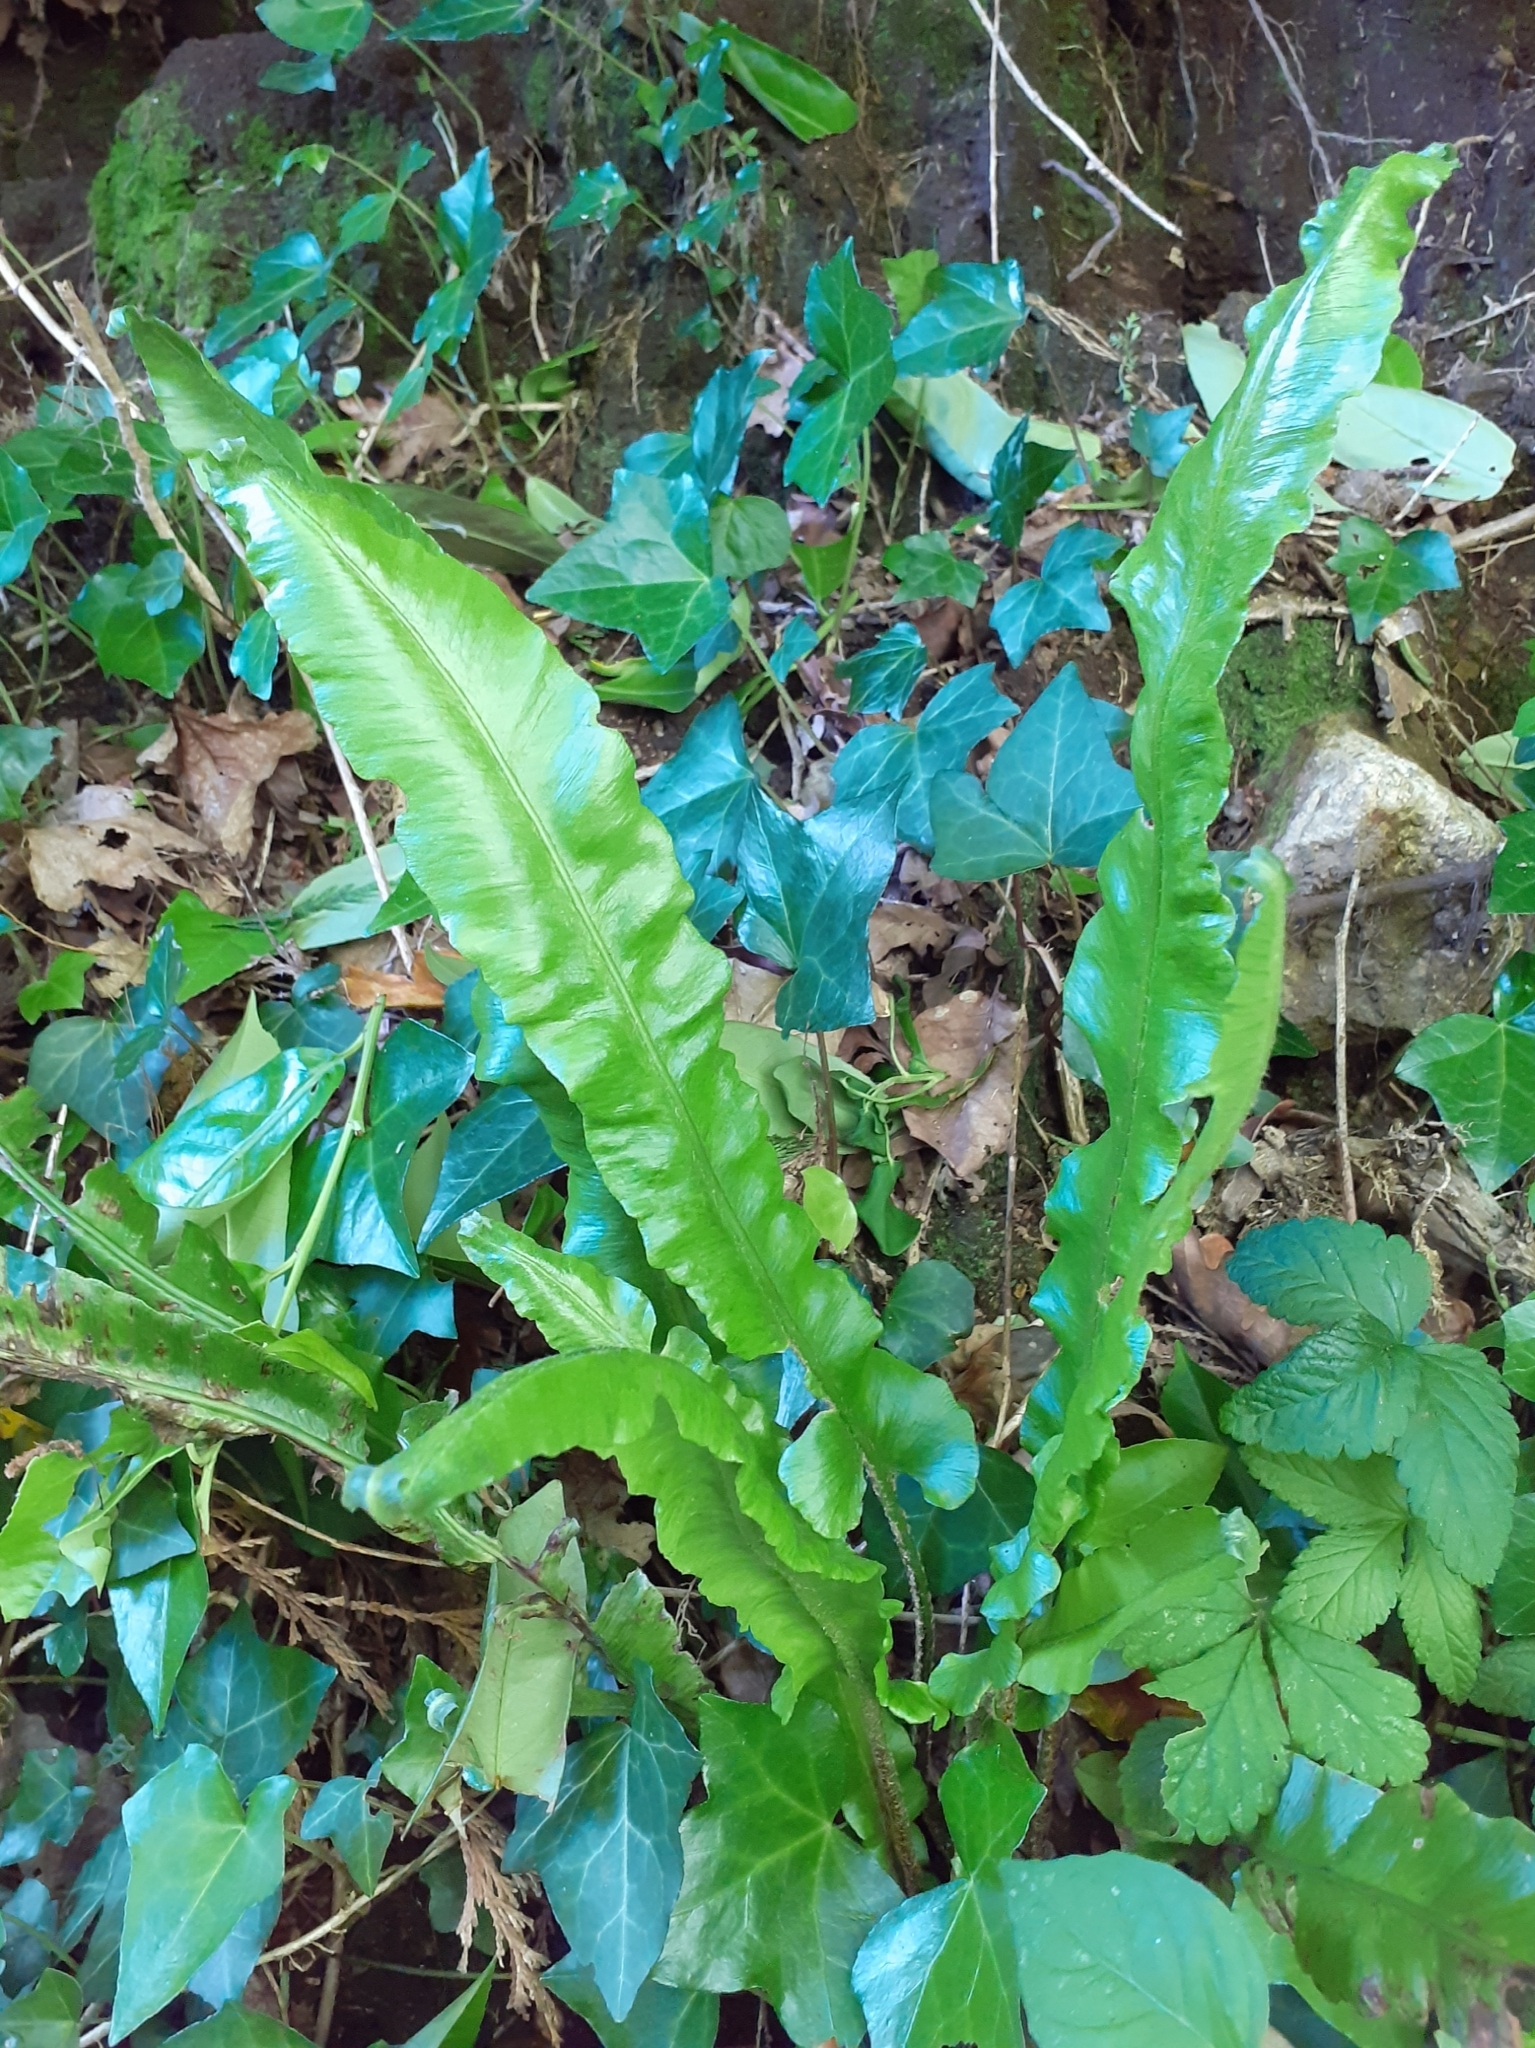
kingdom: Plantae
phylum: Tracheophyta
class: Polypodiopsida
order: Polypodiales
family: Aspleniaceae
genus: Asplenium
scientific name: Asplenium scolopendrium
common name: Hart's-tongue fern
